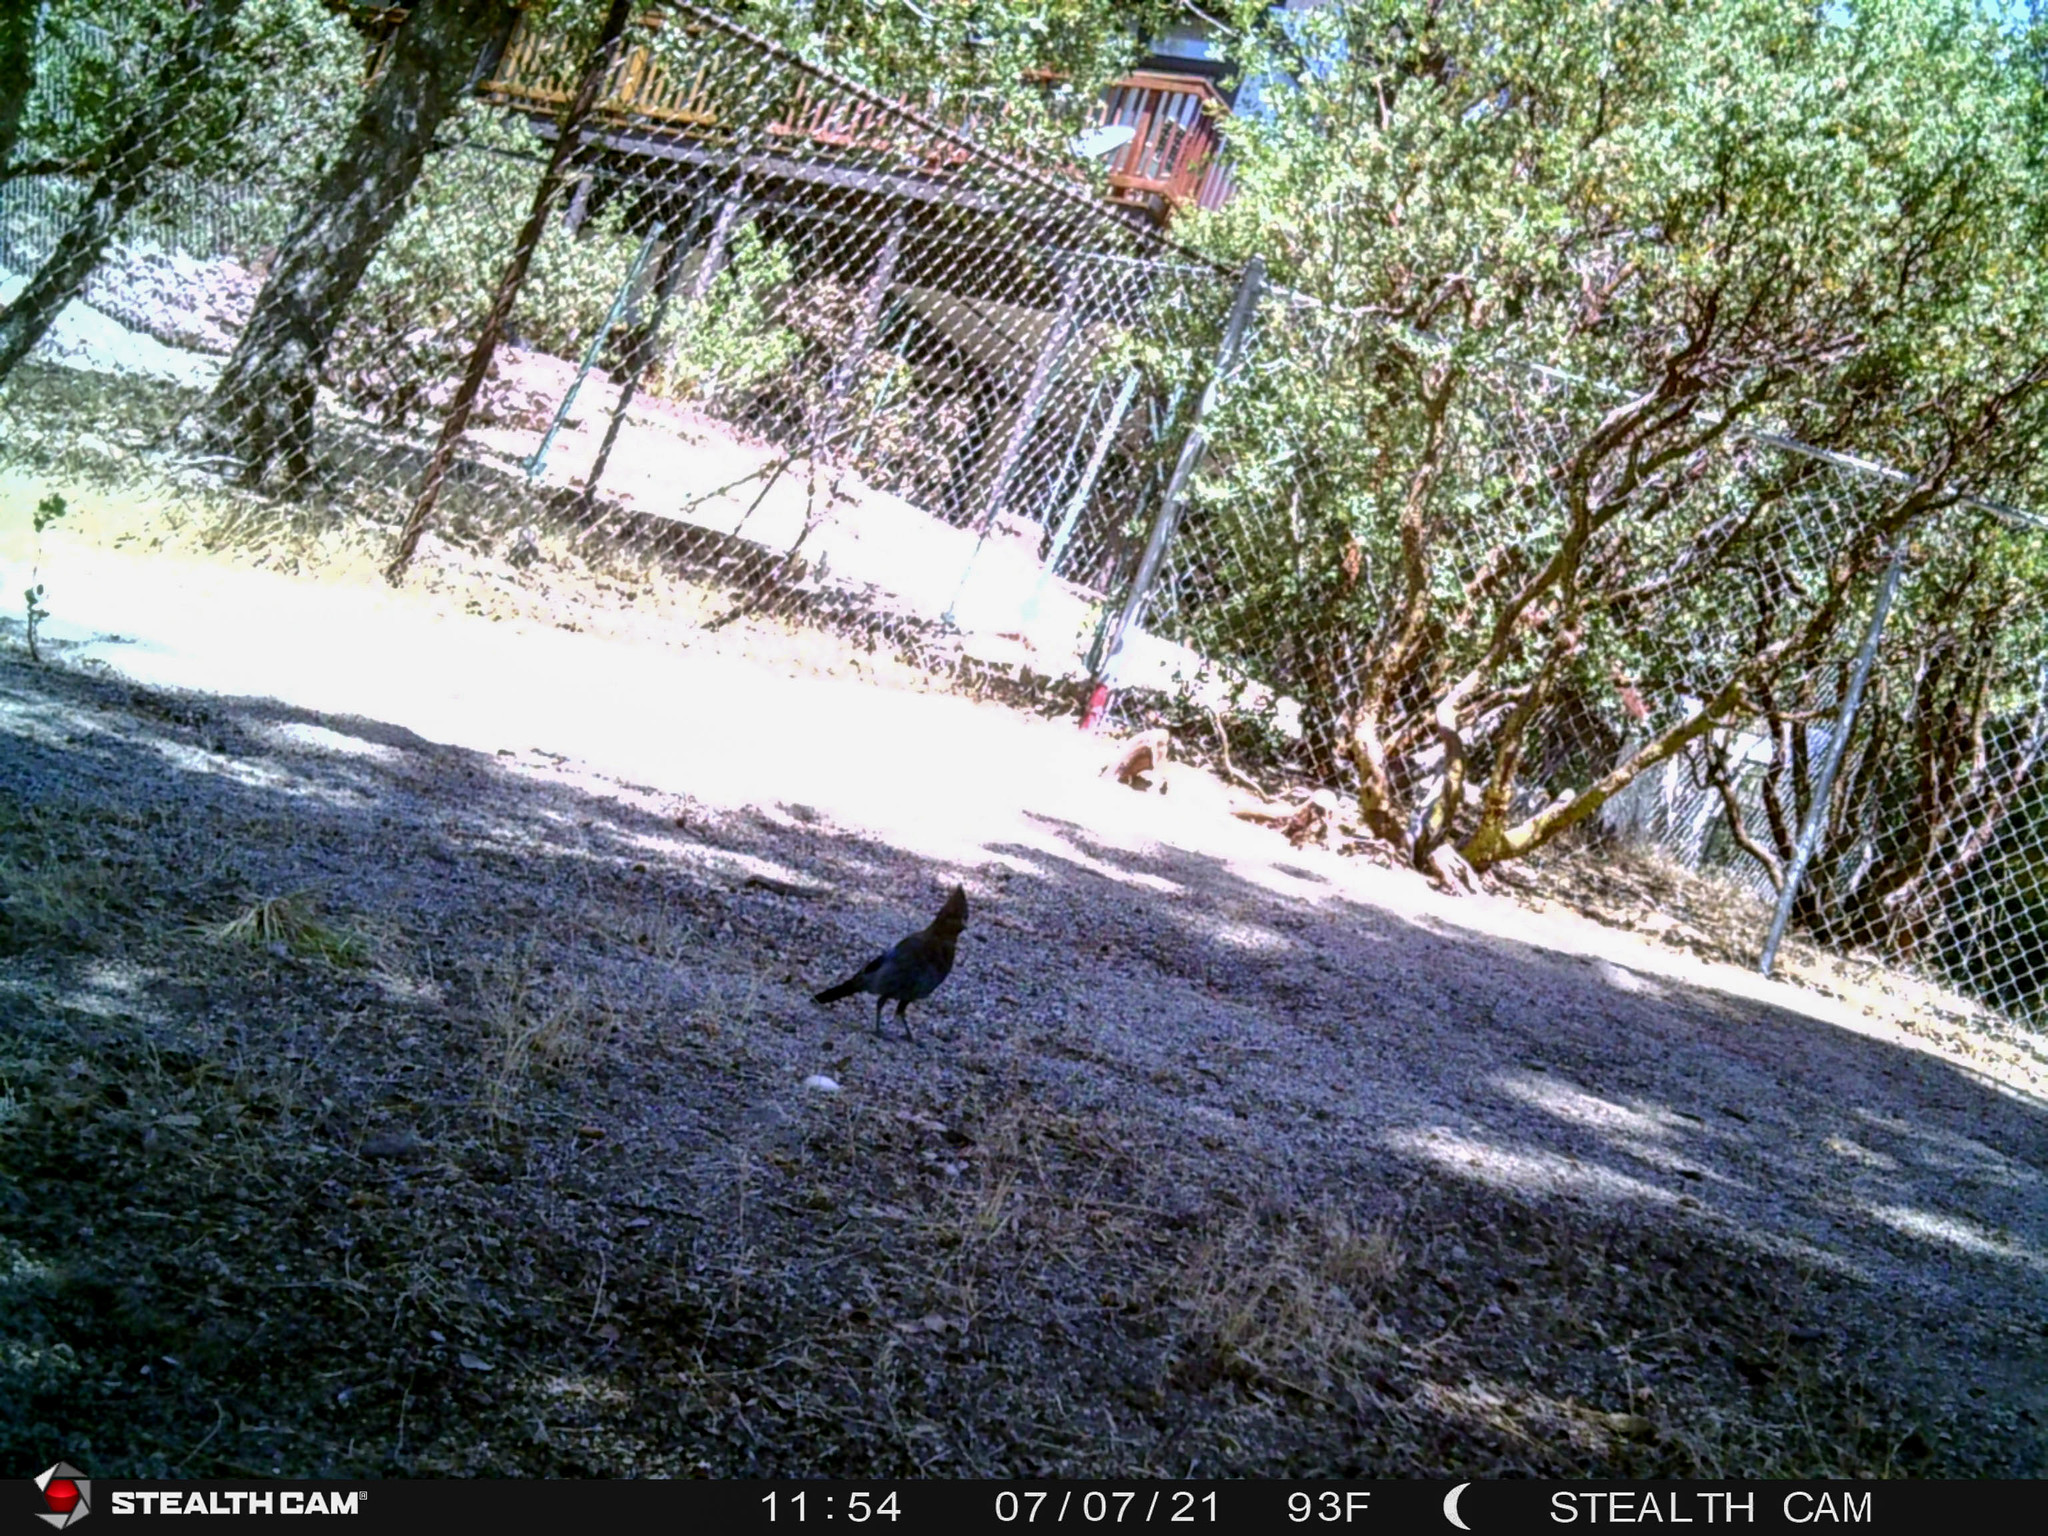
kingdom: Animalia
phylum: Chordata
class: Aves
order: Passeriformes
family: Corvidae
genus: Cyanocitta
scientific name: Cyanocitta stelleri
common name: Steller's jay
